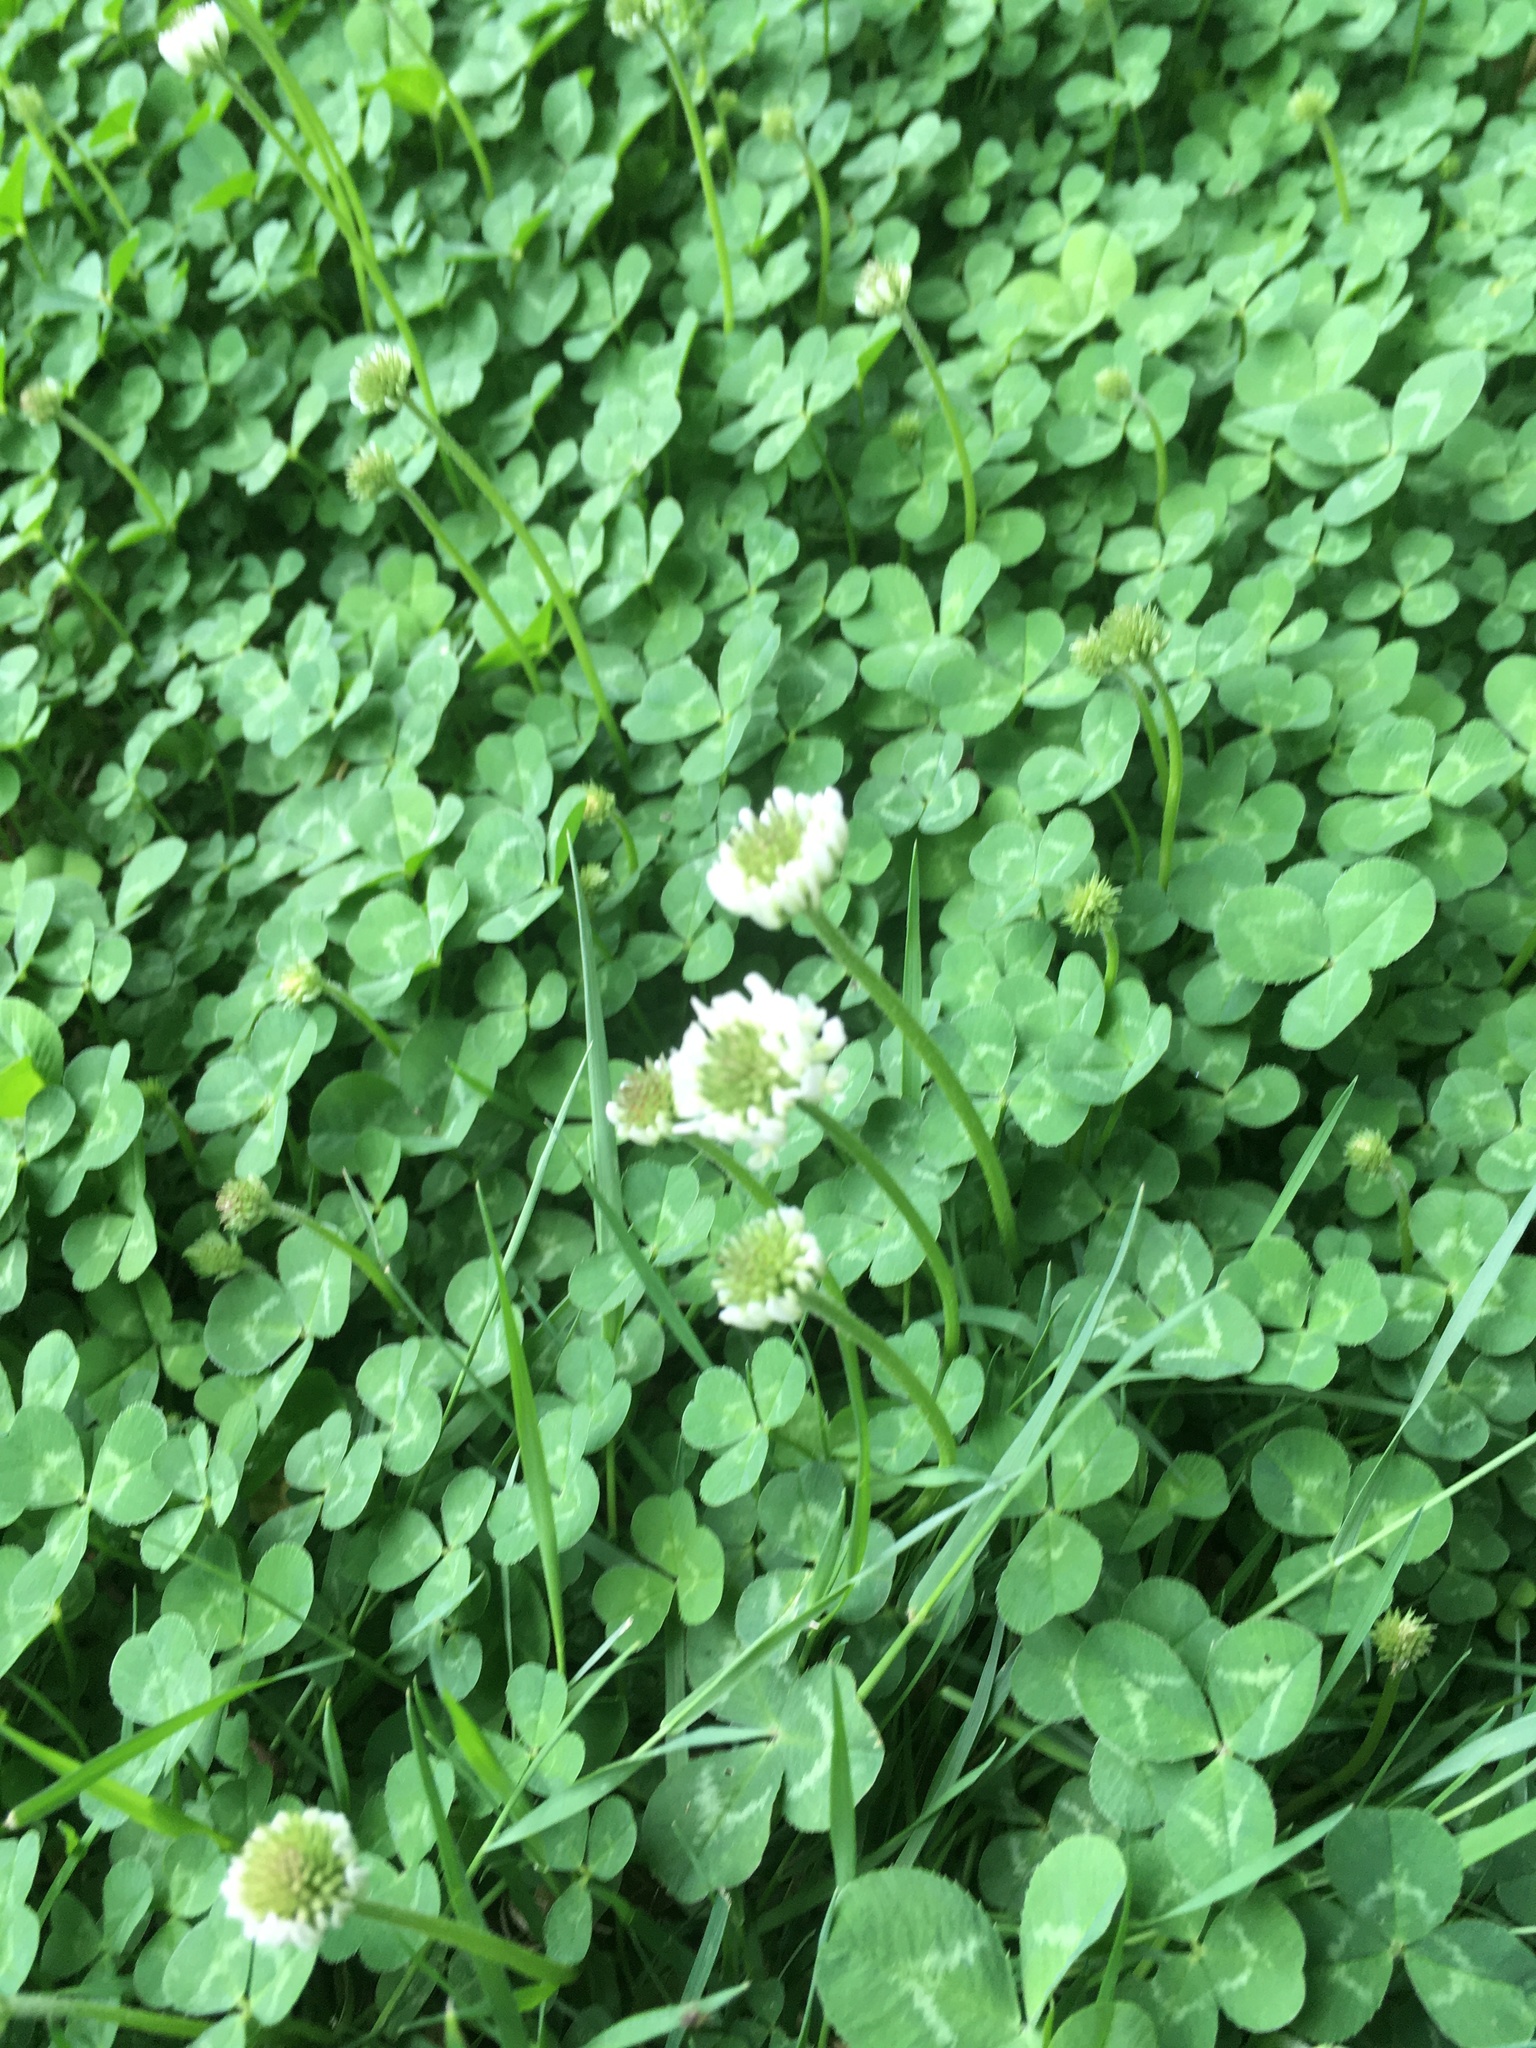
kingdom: Plantae
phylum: Tracheophyta
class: Magnoliopsida
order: Fabales
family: Fabaceae
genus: Trifolium
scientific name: Trifolium repens
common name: White clover
